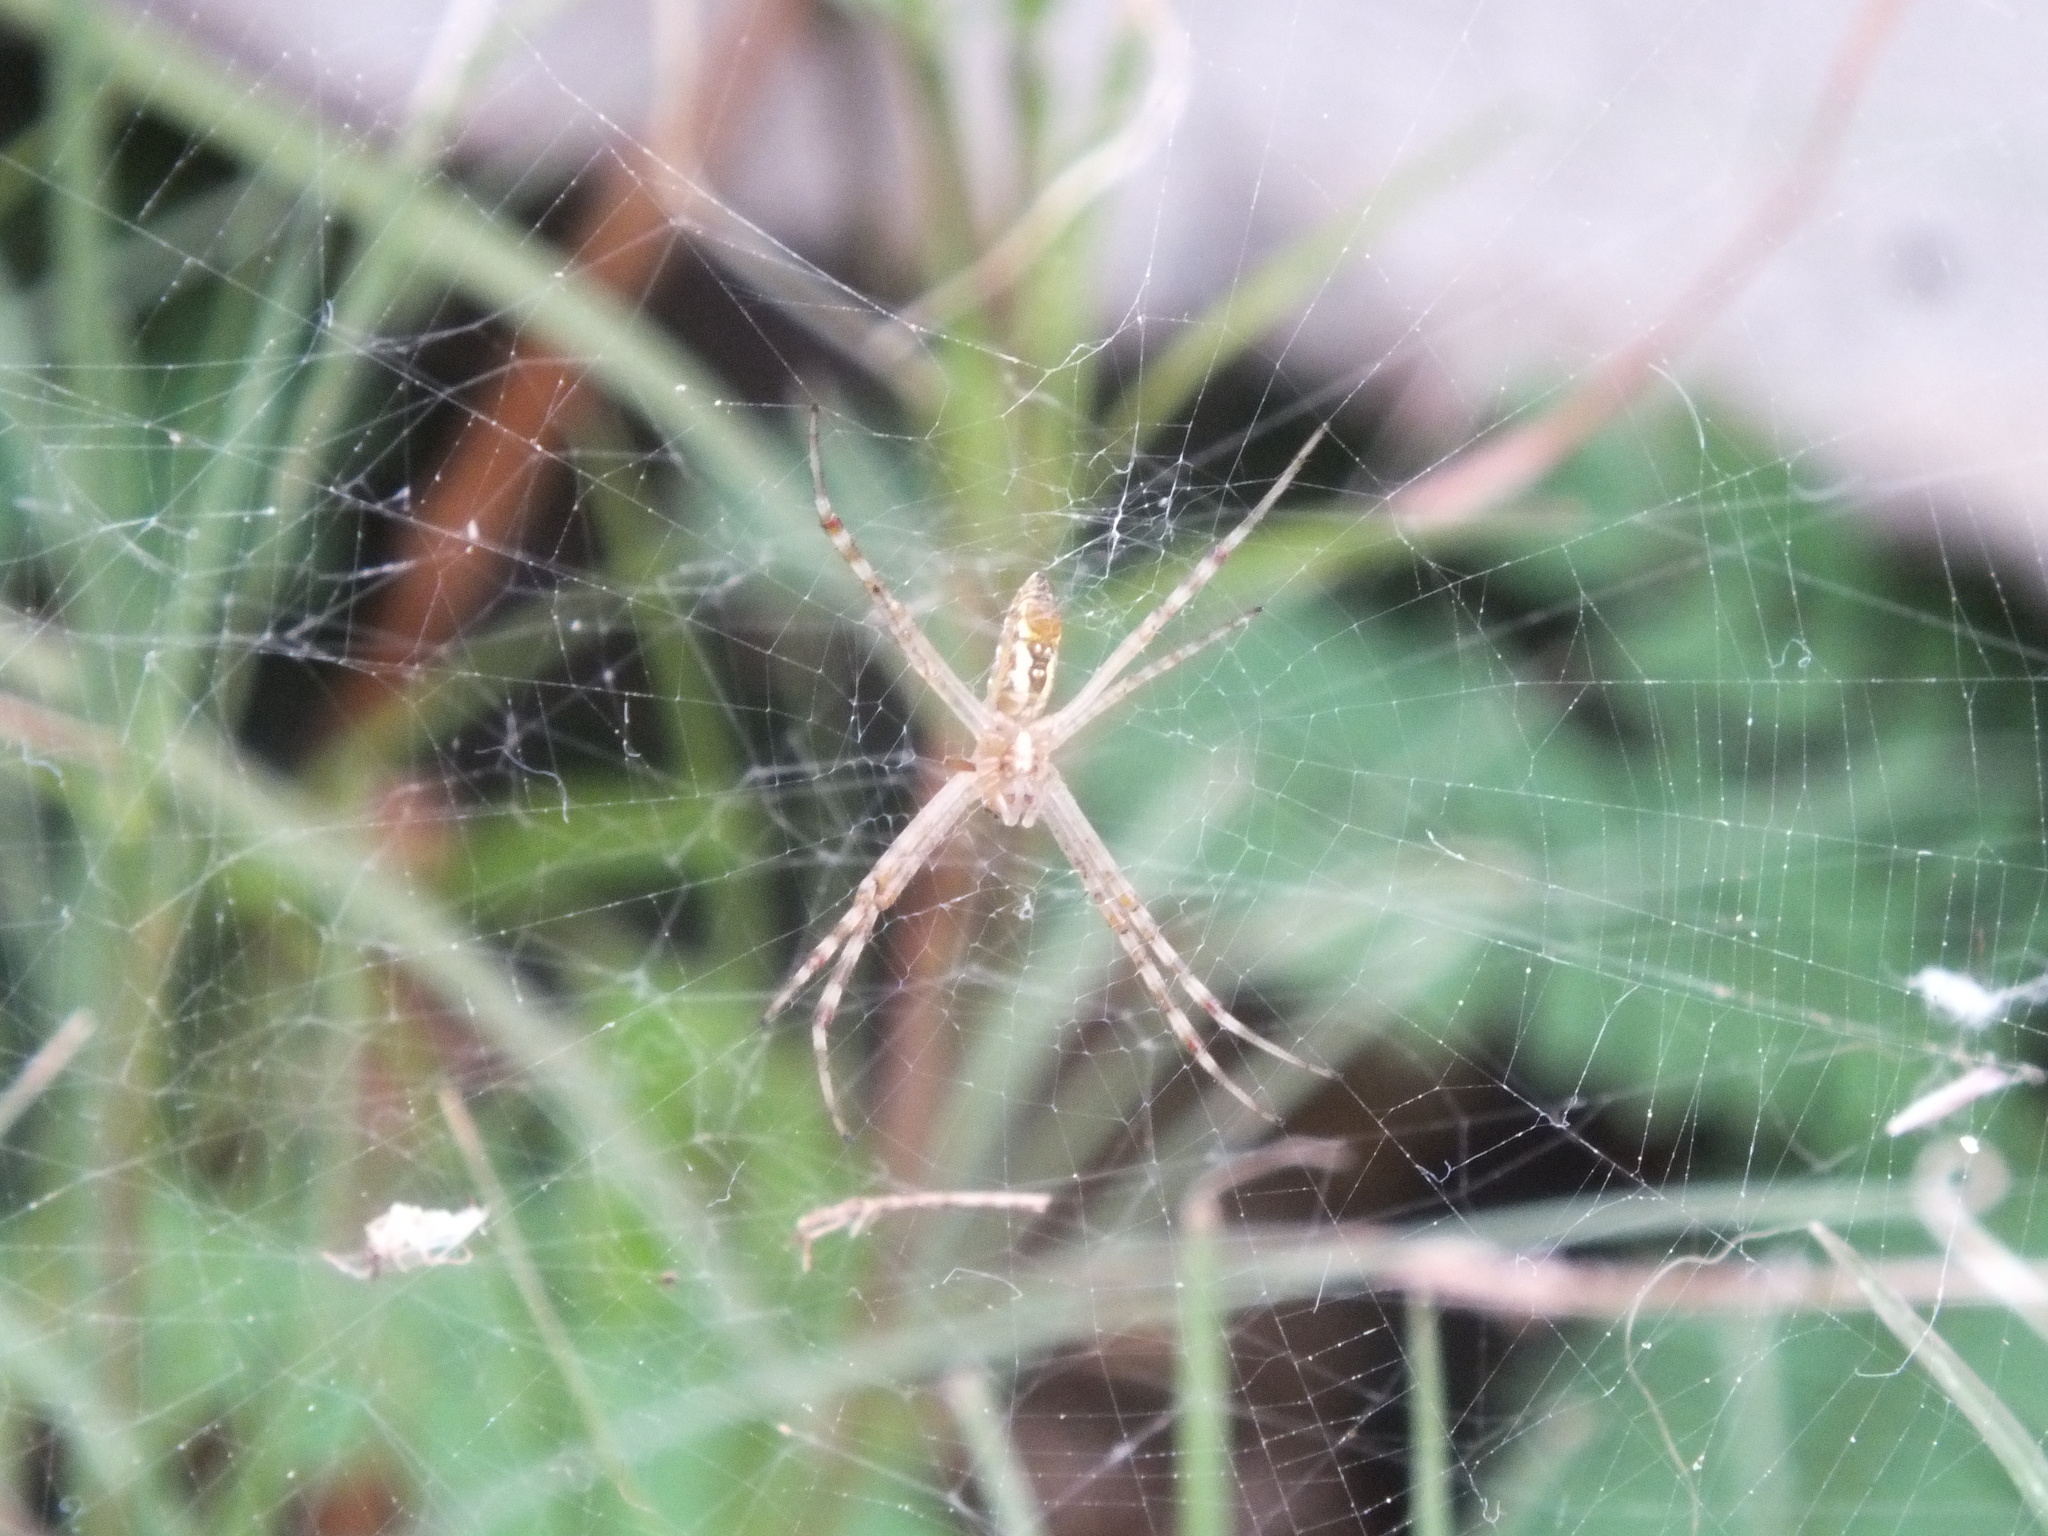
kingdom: Animalia
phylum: Arthropoda
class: Arachnida
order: Araneae
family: Araneidae
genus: Argiope
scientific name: Argiope trifasciata
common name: Banded garden spider
